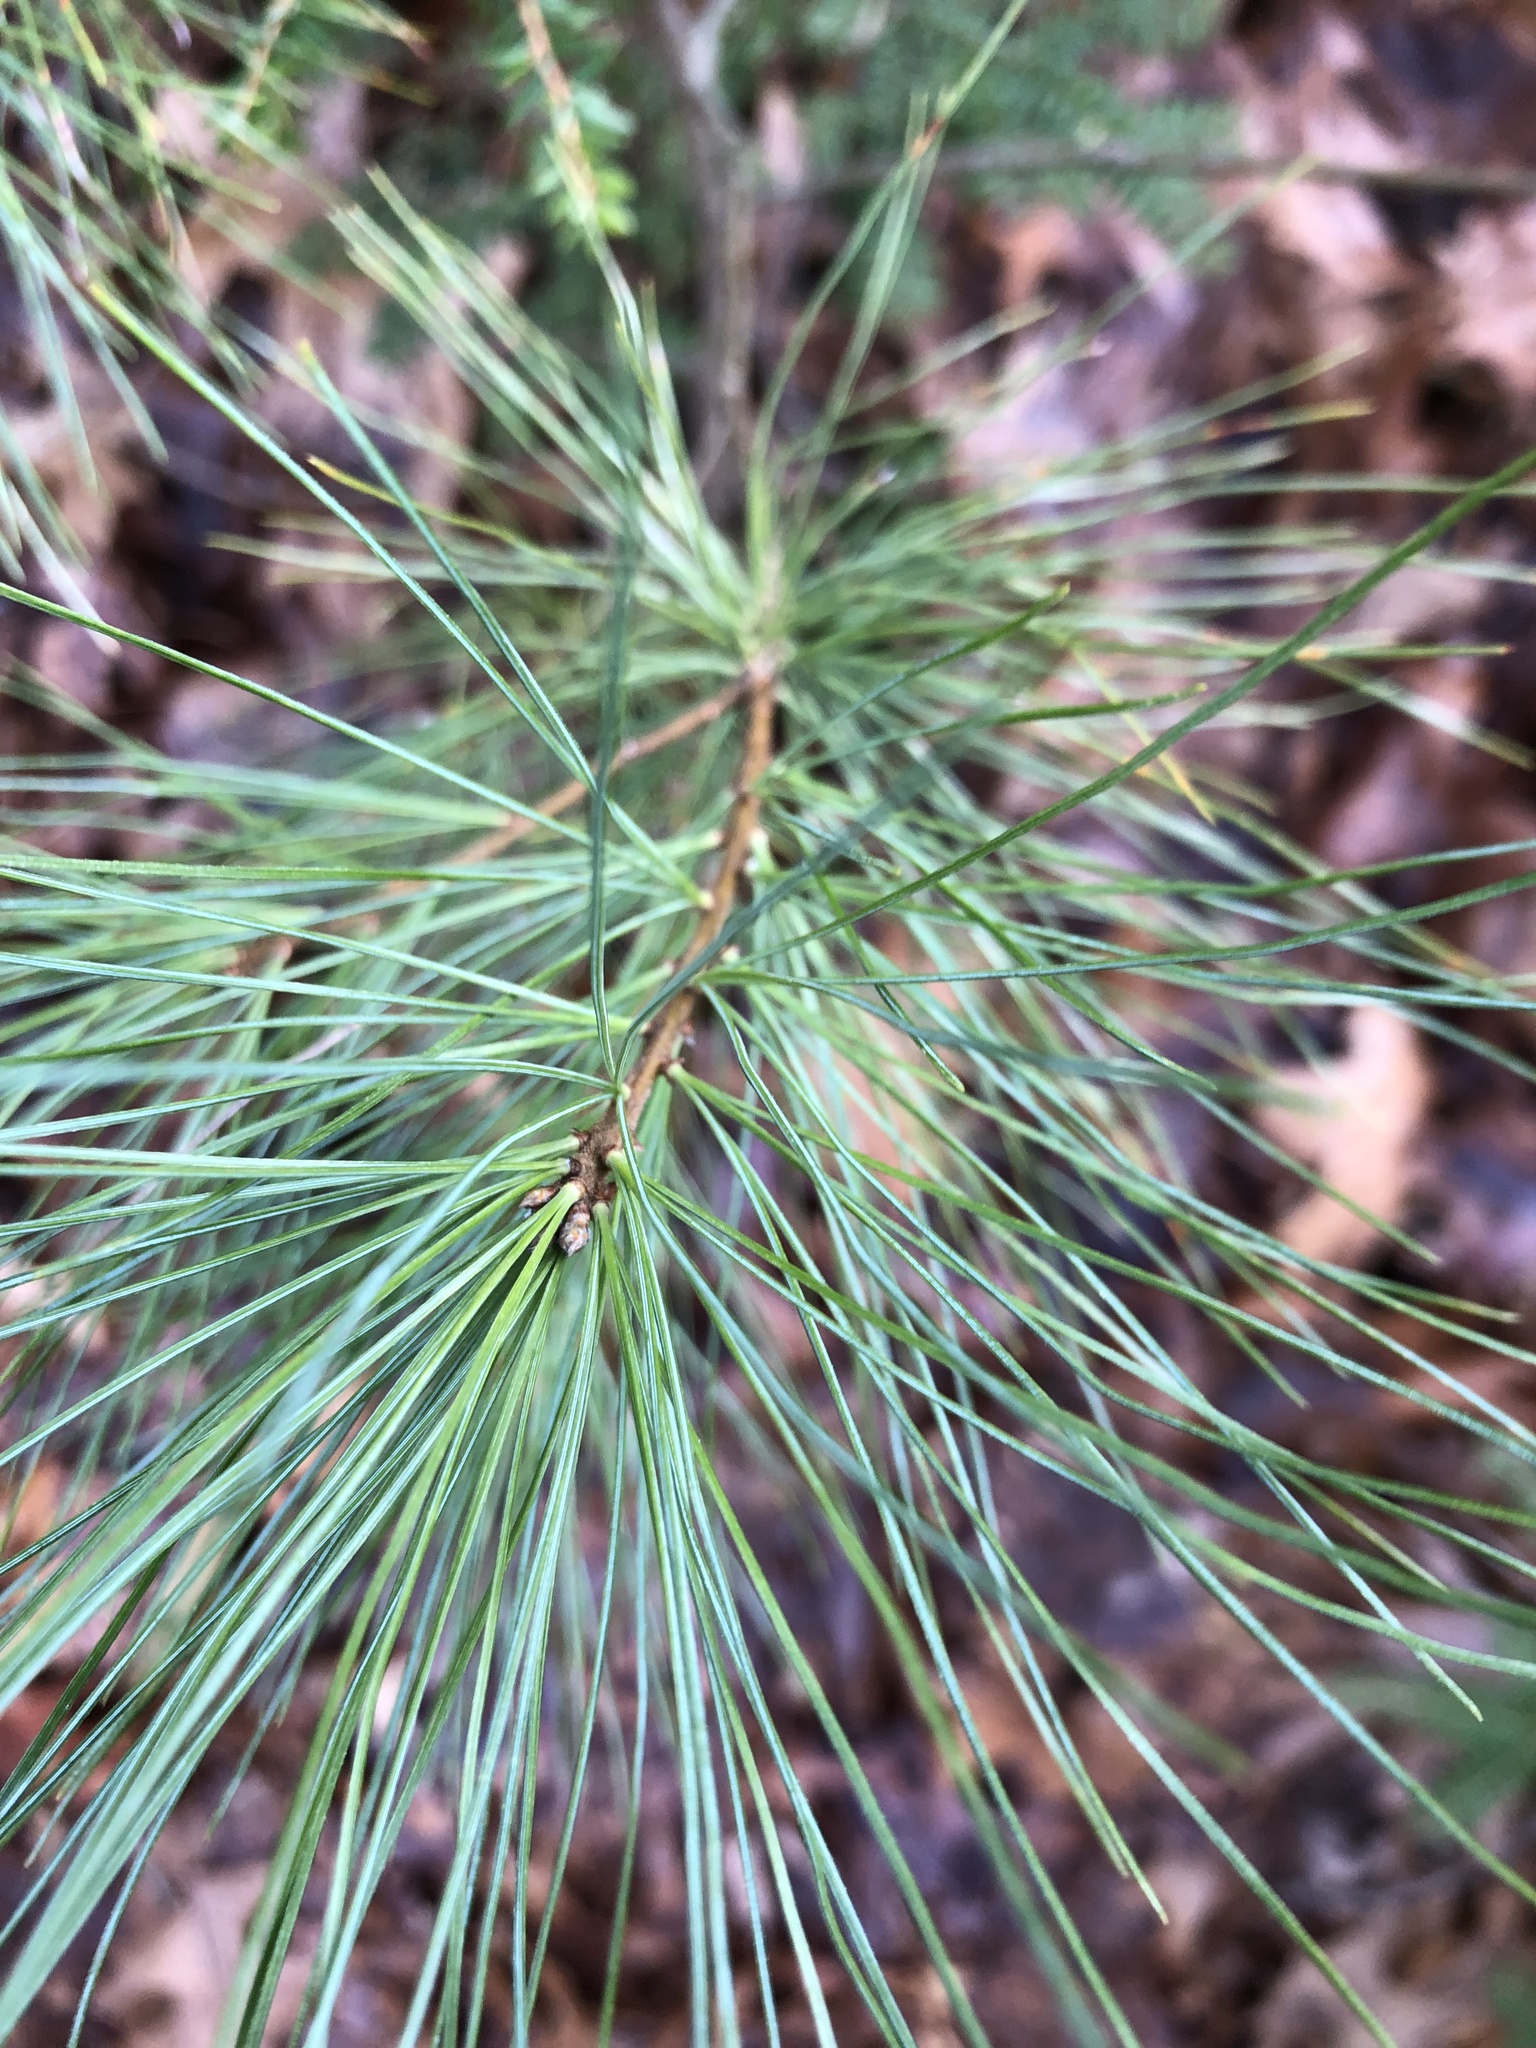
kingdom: Plantae
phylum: Tracheophyta
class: Pinopsida
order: Pinales
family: Pinaceae
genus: Pinus
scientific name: Pinus strobus
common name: Weymouth pine
